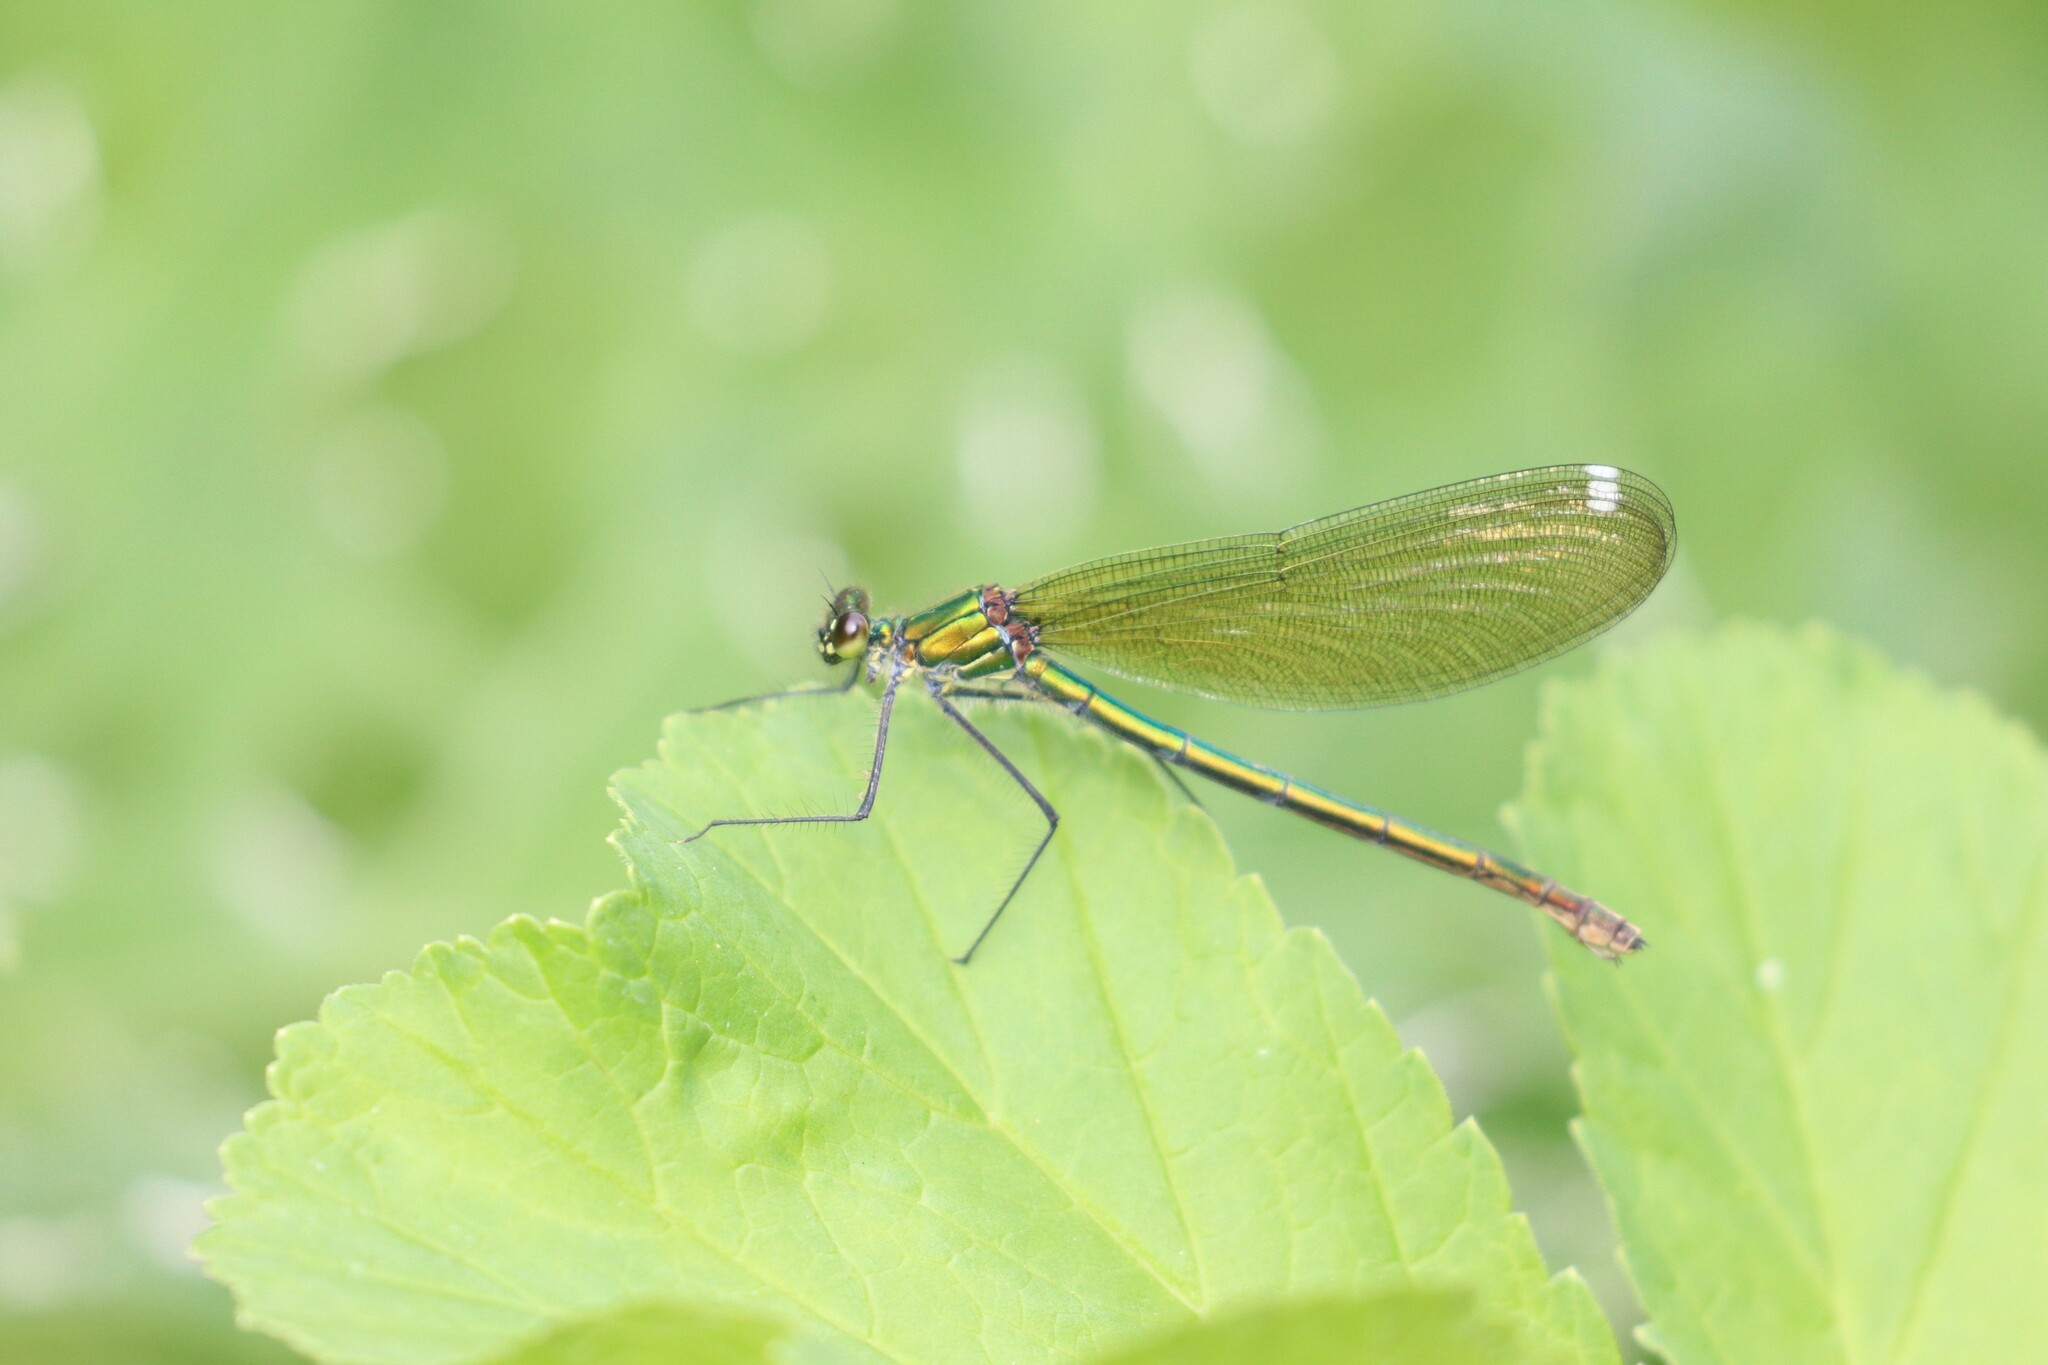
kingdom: Animalia
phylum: Arthropoda
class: Insecta
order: Odonata
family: Calopterygidae
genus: Calopteryx
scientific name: Calopteryx splendens
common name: Banded demoiselle
